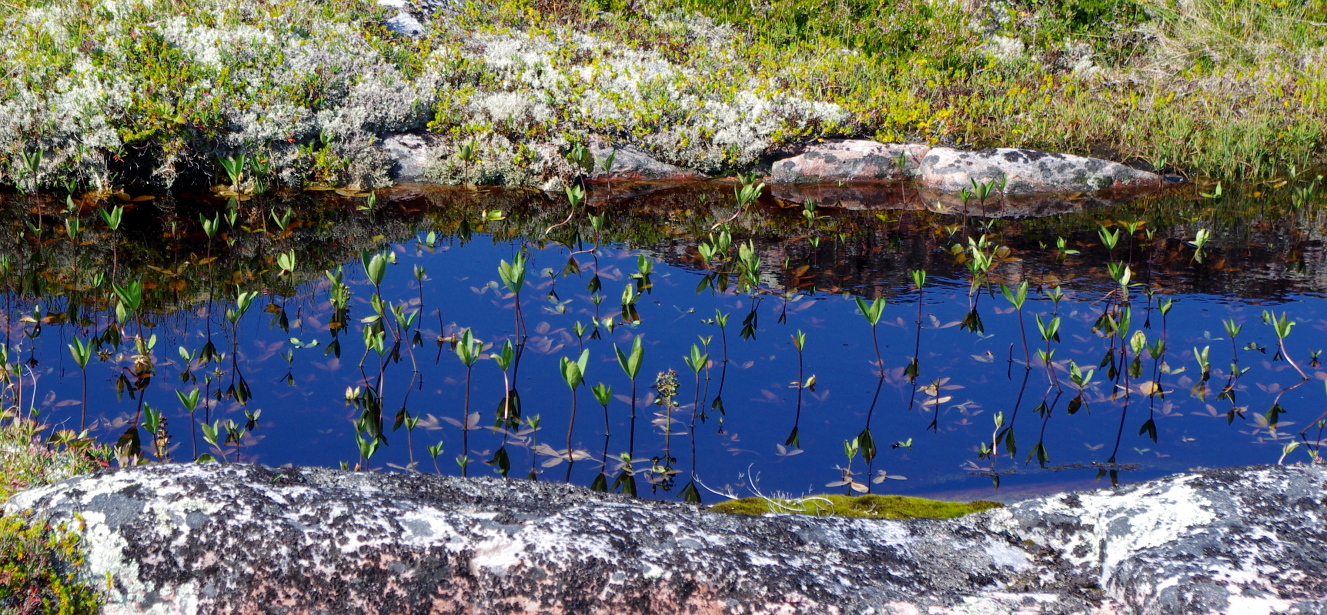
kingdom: Plantae
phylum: Tracheophyta
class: Magnoliopsida
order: Asterales
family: Menyanthaceae
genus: Menyanthes
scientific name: Menyanthes trifoliata
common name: Bogbean
